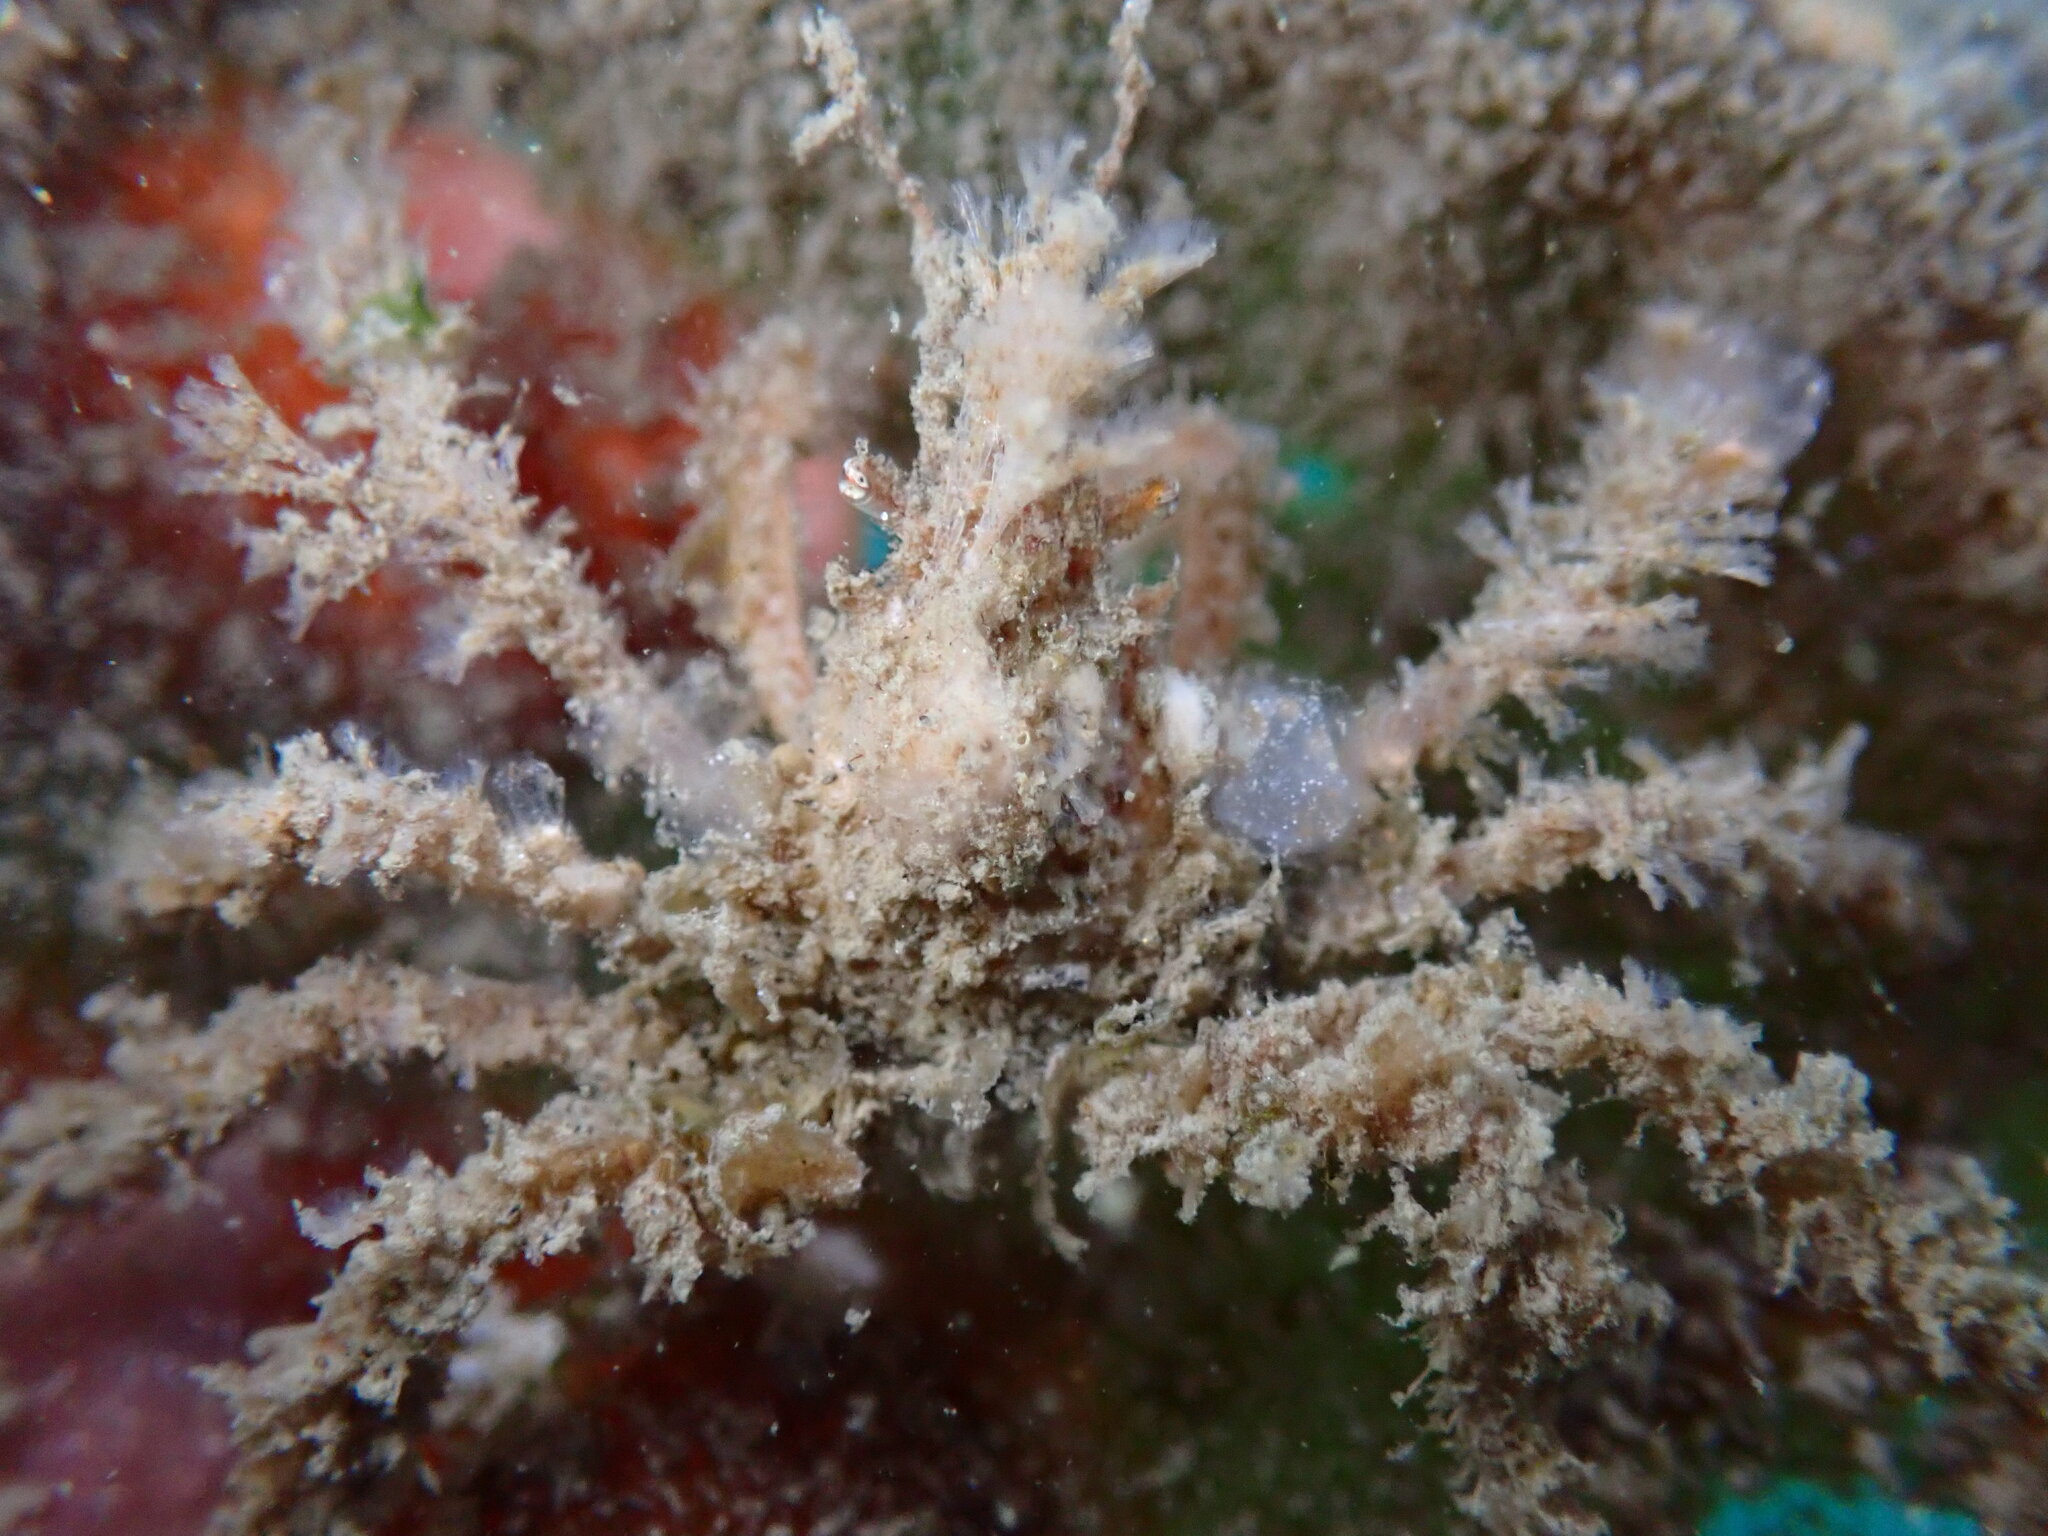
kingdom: Animalia
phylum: Arthropoda
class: Malacostraca
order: Decapoda
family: Oregoniidae
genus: Oregonia
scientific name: Oregonia gracilis
